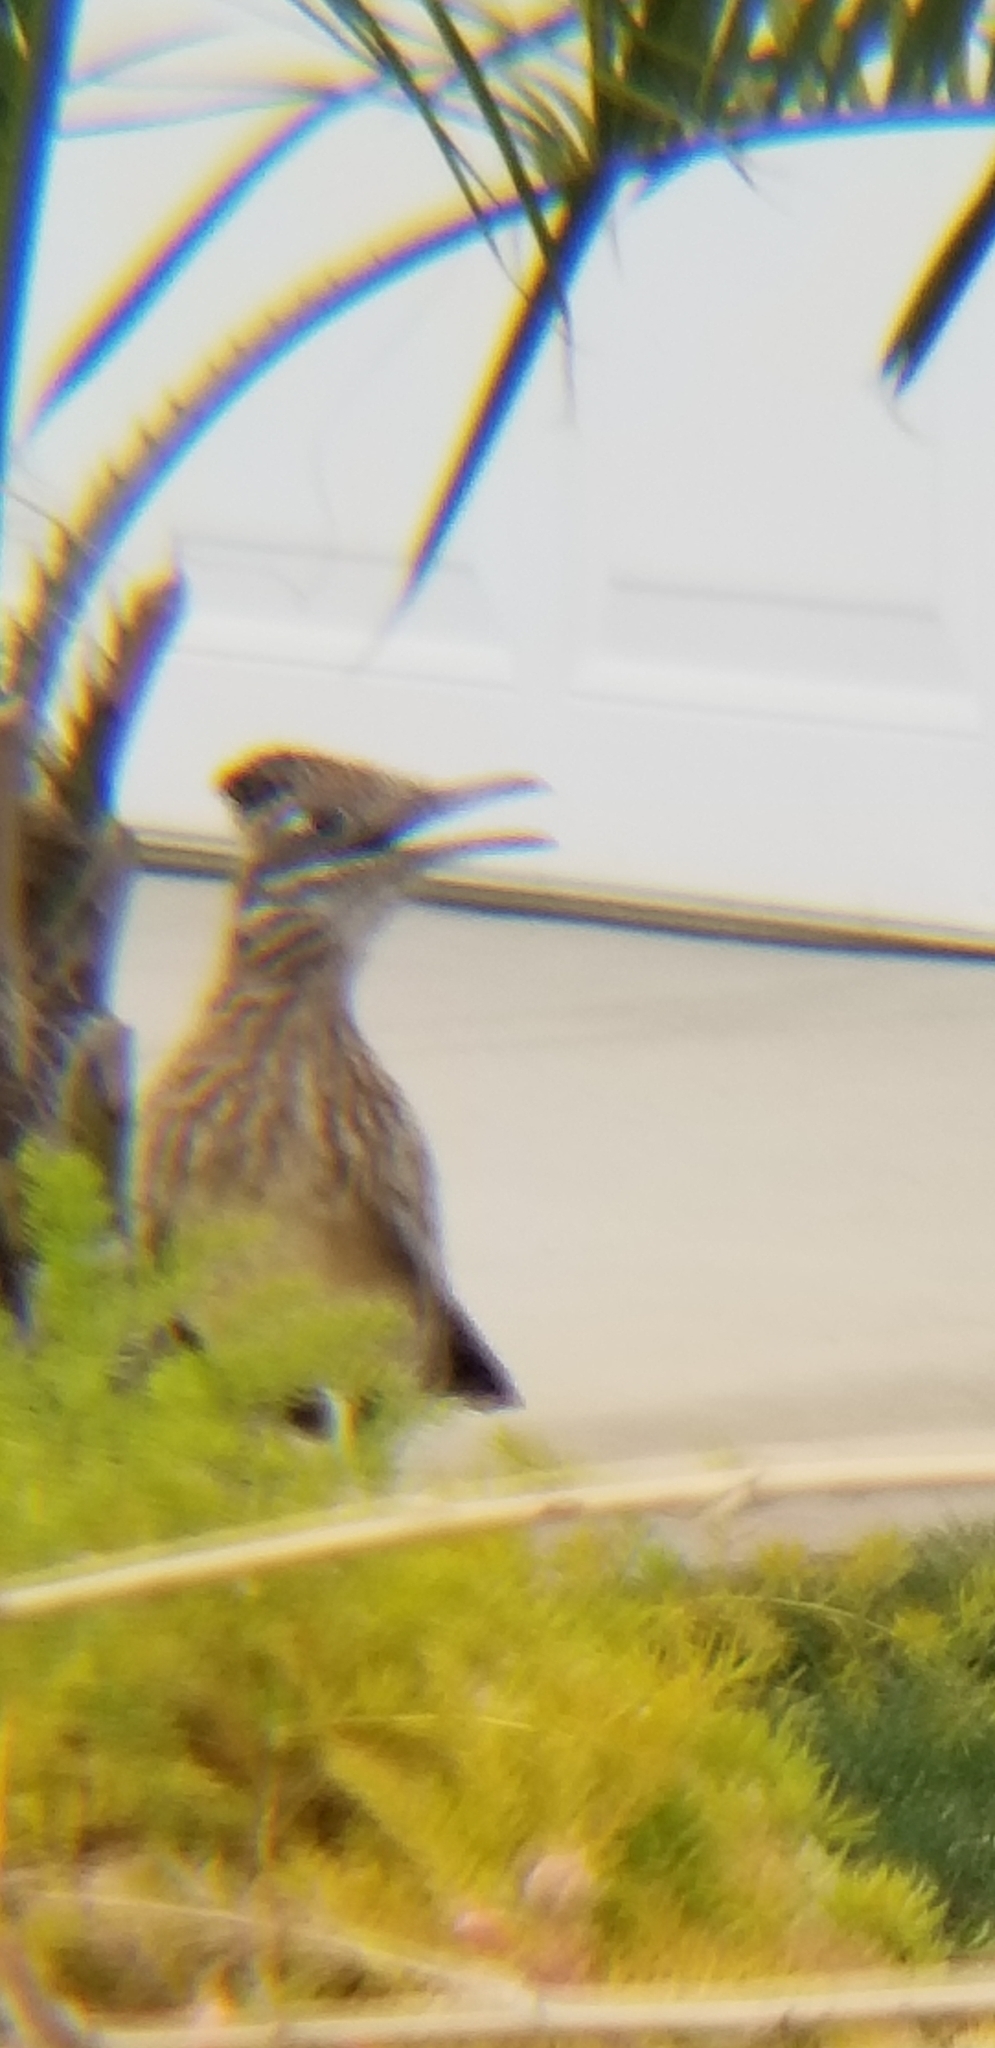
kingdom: Animalia
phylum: Chordata
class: Aves
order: Cuculiformes
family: Cuculidae
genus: Geococcyx
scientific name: Geococcyx californianus
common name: Greater roadrunner
